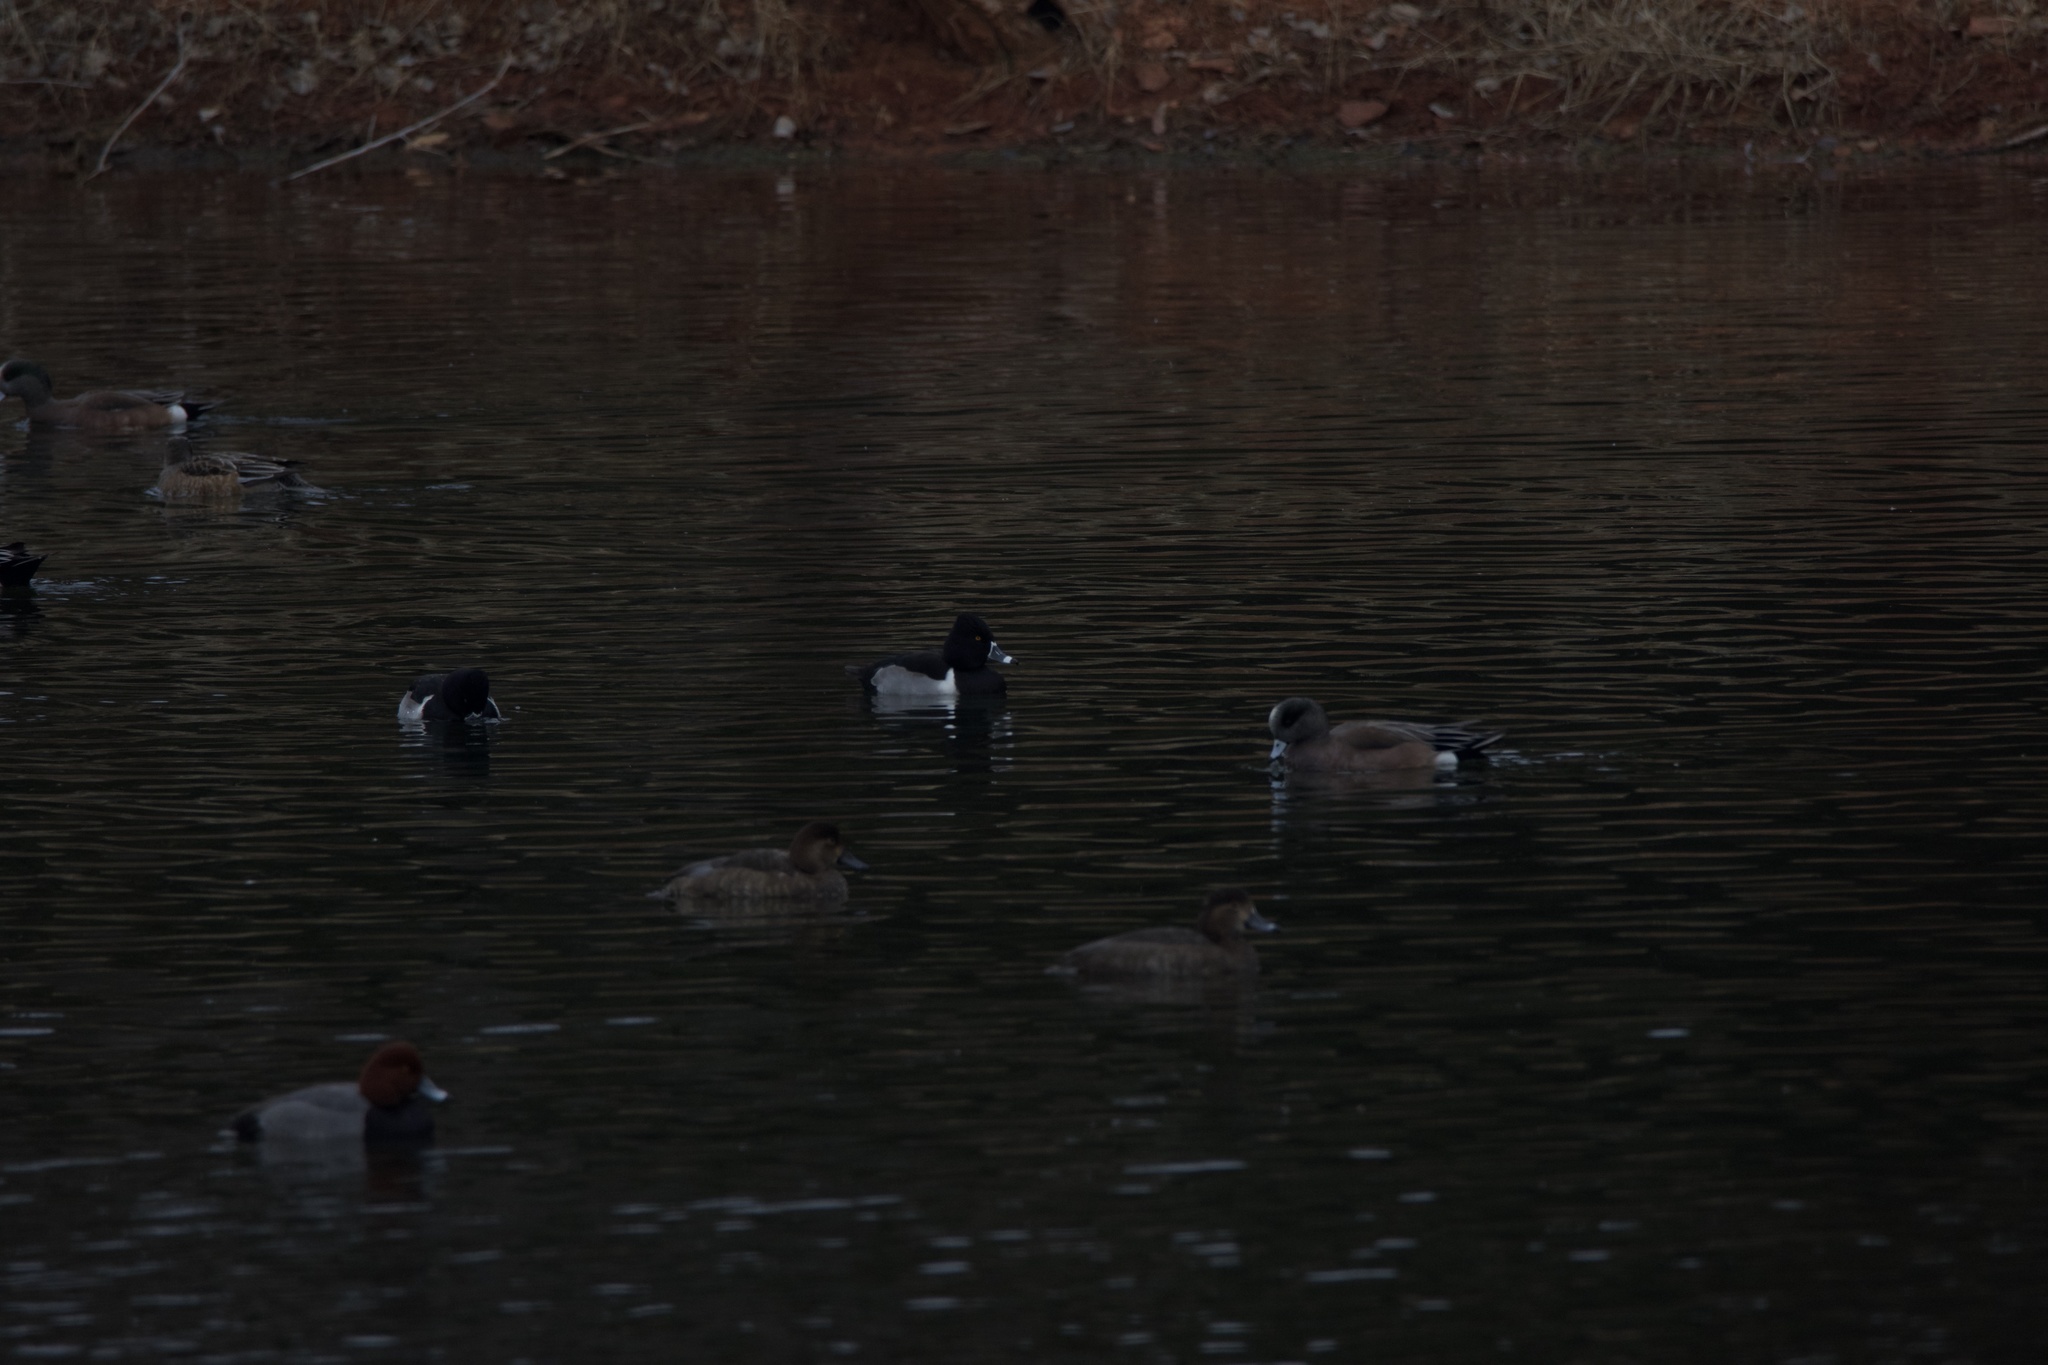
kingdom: Animalia
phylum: Chordata
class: Aves
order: Anseriformes
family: Anatidae
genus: Aythya
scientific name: Aythya collaris
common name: Ring-necked duck
